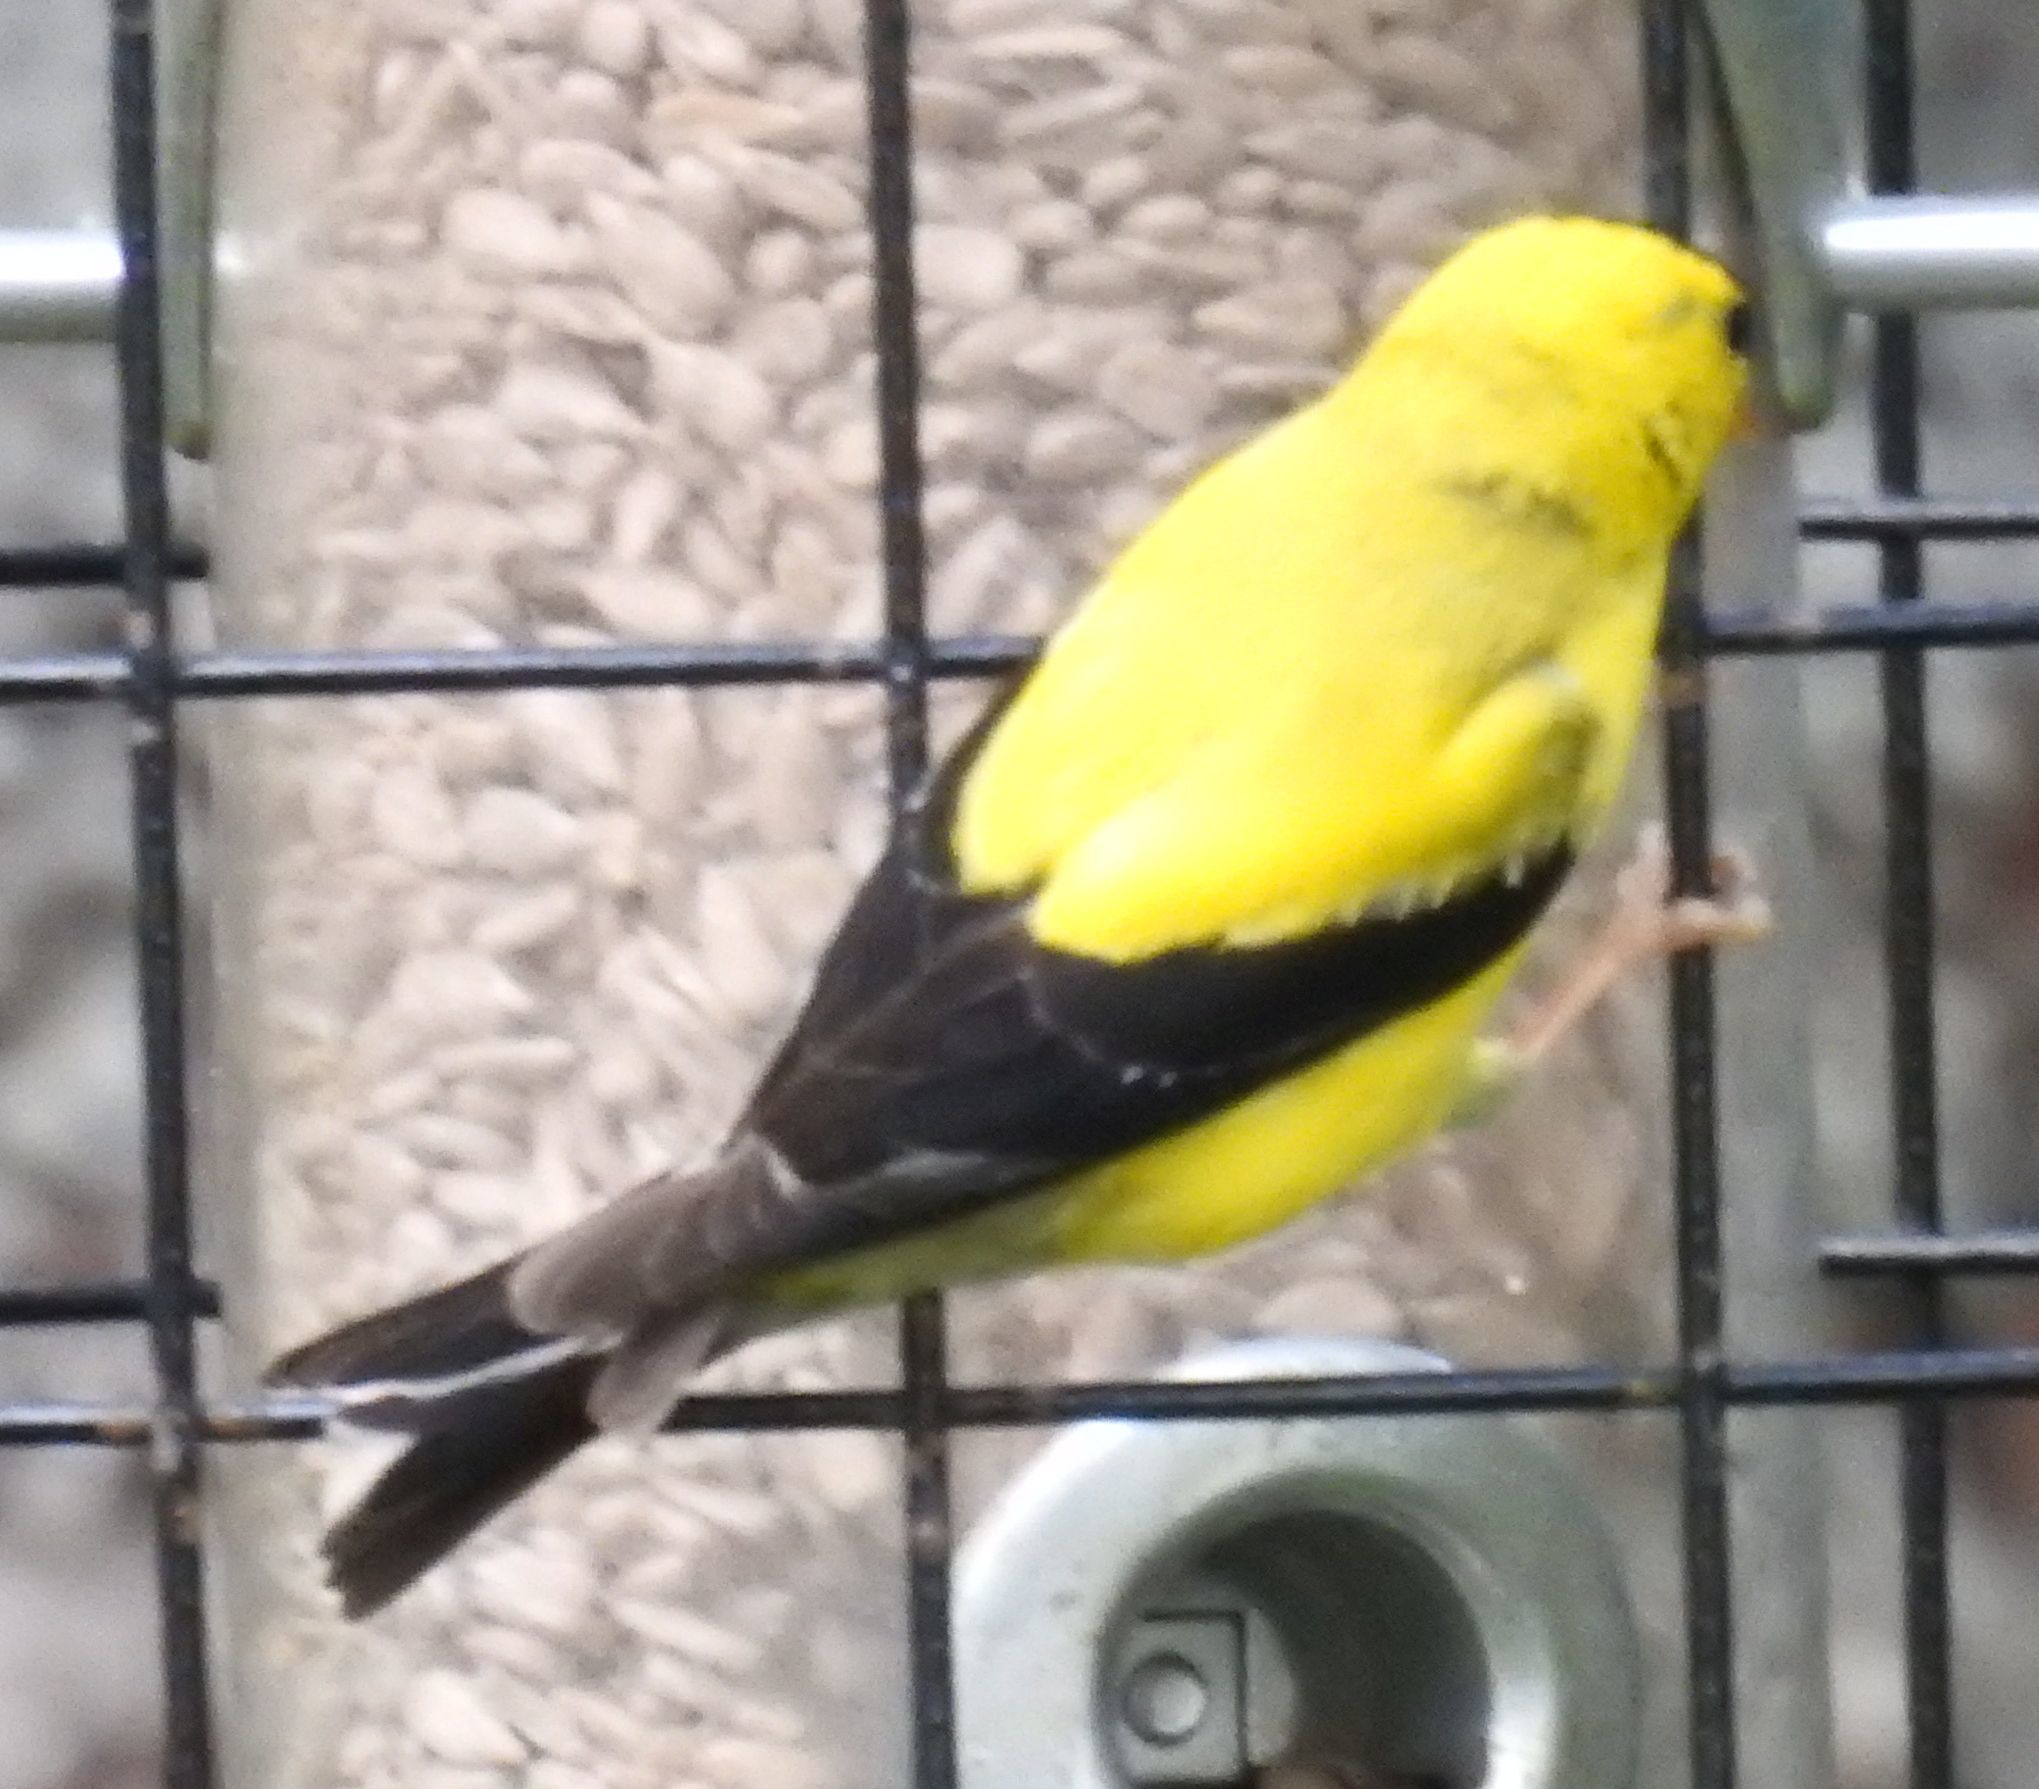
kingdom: Animalia
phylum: Chordata
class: Aves
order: Passeriformes
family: Fringillidae
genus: Spinus
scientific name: Spinus tristis
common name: American goldfinch
